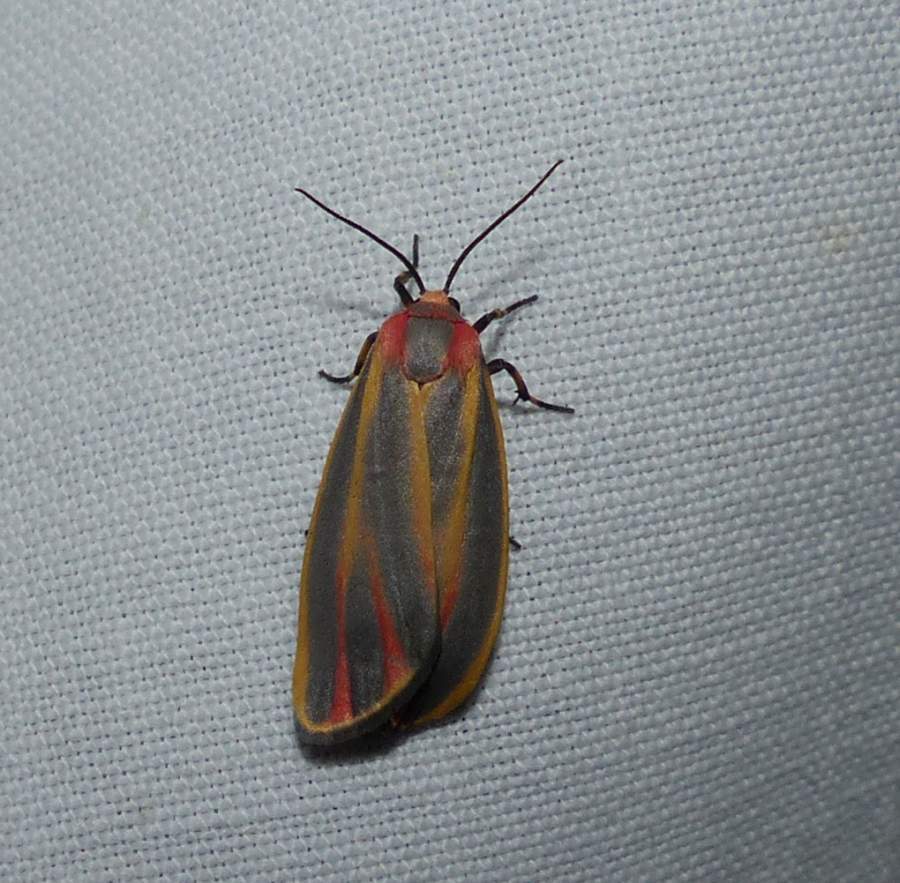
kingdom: Animalia
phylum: Arthropoda
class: Insecta
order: Lepidoptera
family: Erebidae
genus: Hypoprepia
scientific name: Hypoprepia fucosa
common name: Painted lichen moth
